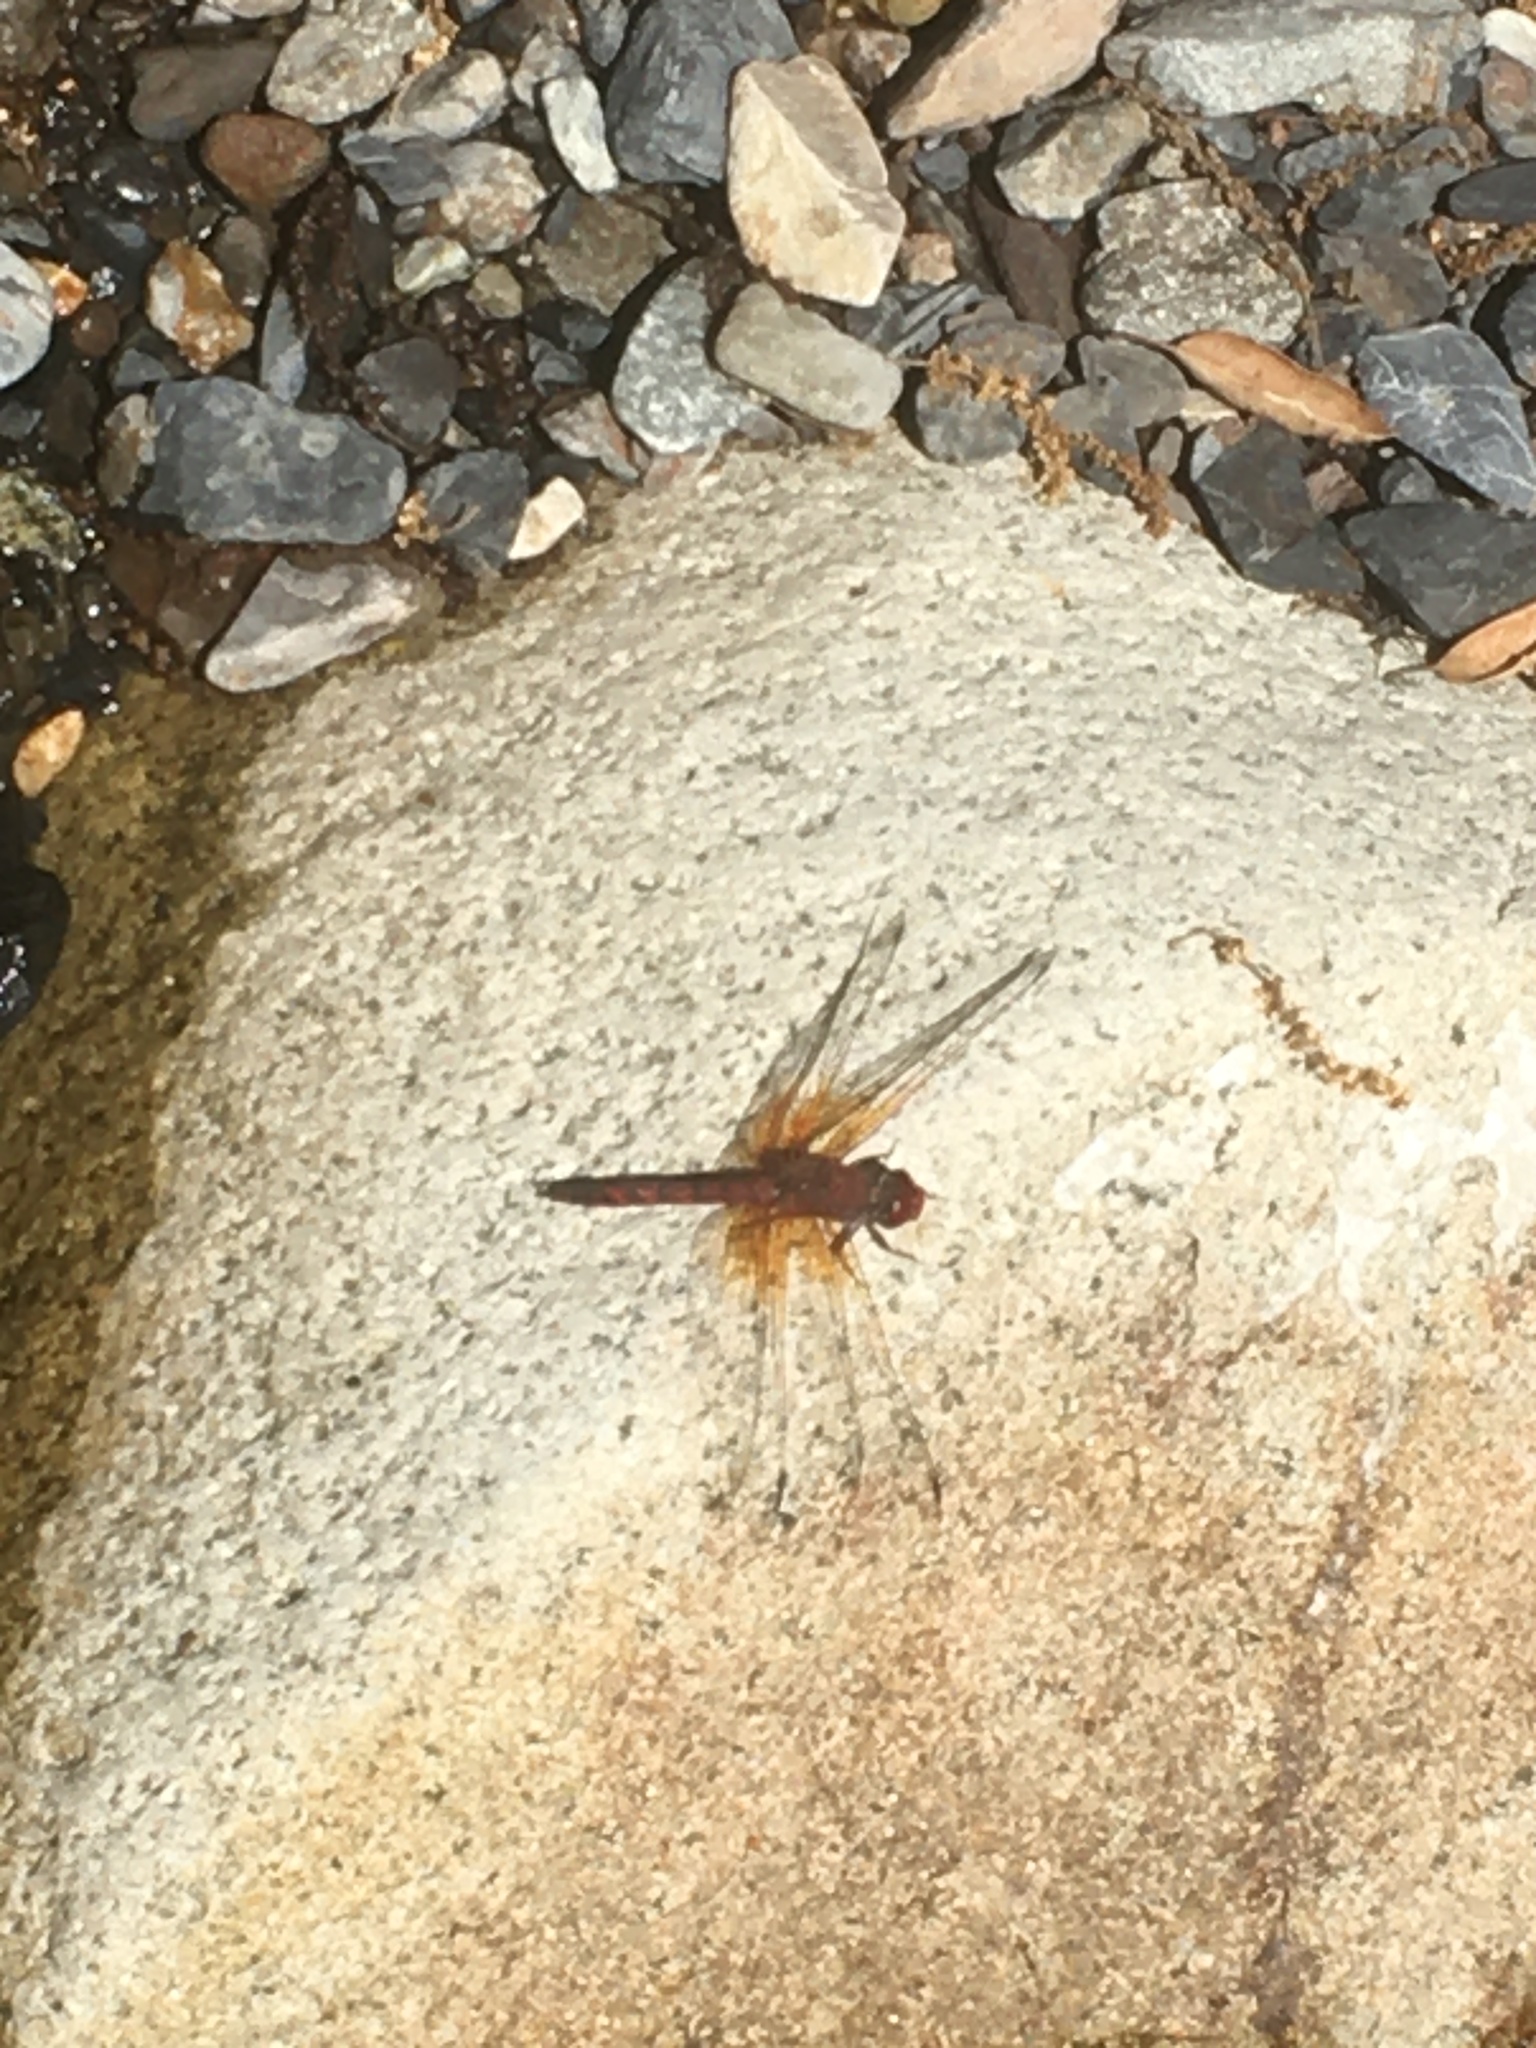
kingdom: Animalia
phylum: Arthropoda
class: Insecta
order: Odonata
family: Libellulidae
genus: Paltothemis
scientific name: Paltothemis lineatipes
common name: Red rock skimmer
